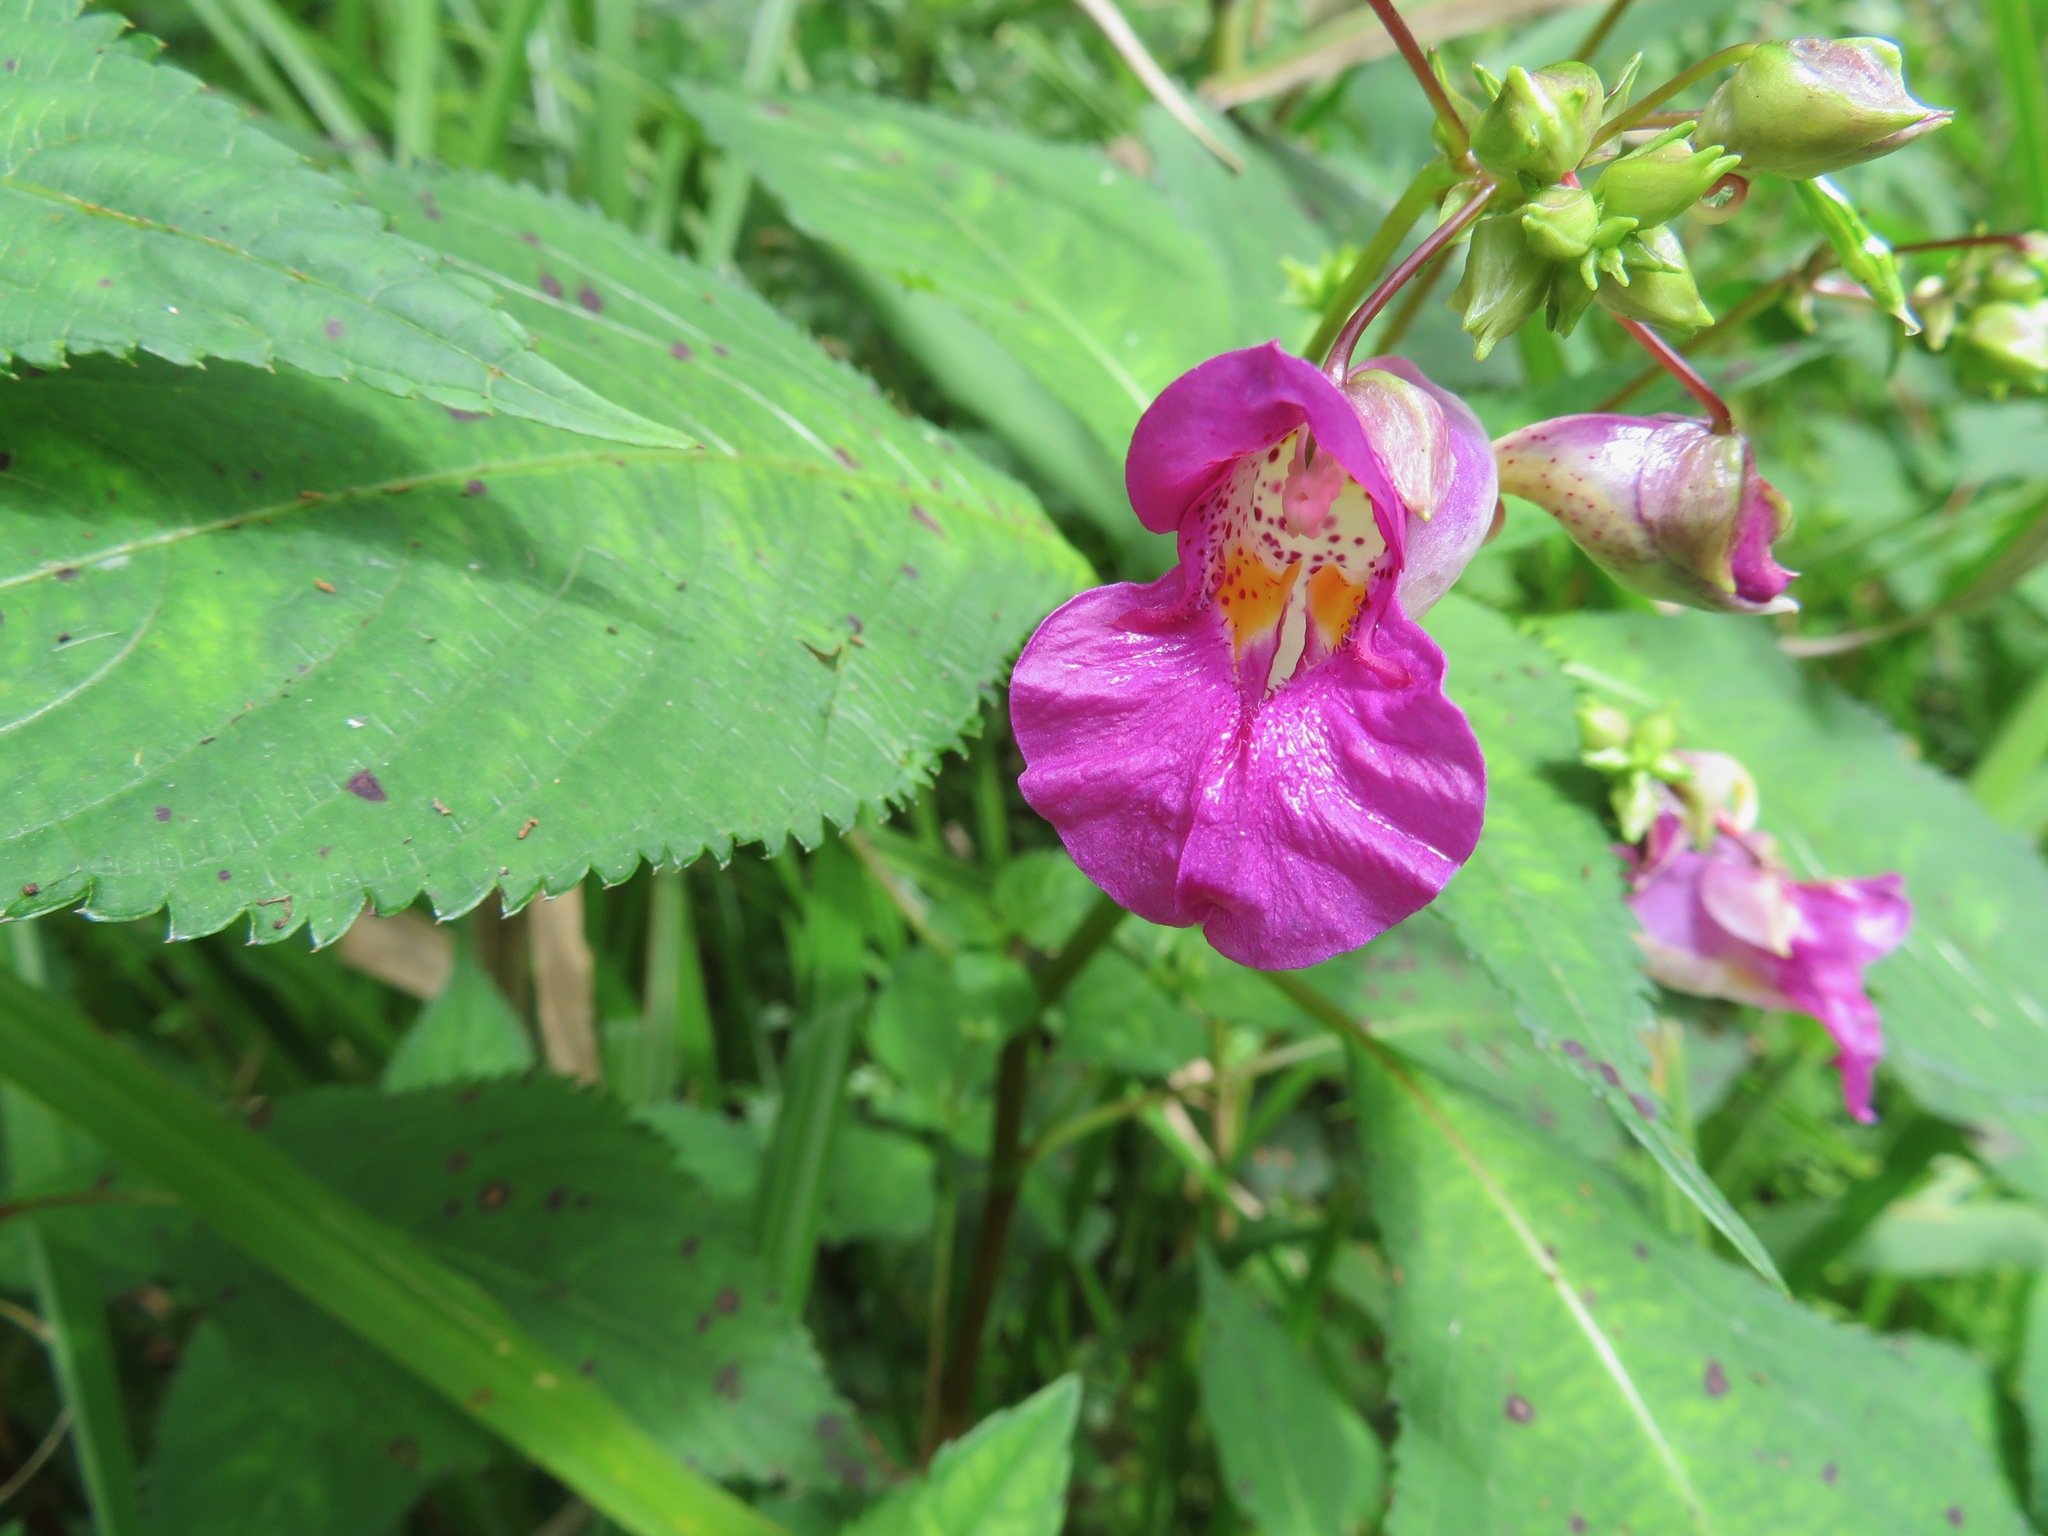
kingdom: Plantae
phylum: Tracheophyta
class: Magnoliopsida
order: Ericales
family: Balsaminaceae
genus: Impatiens
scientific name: Impatiens textorii
